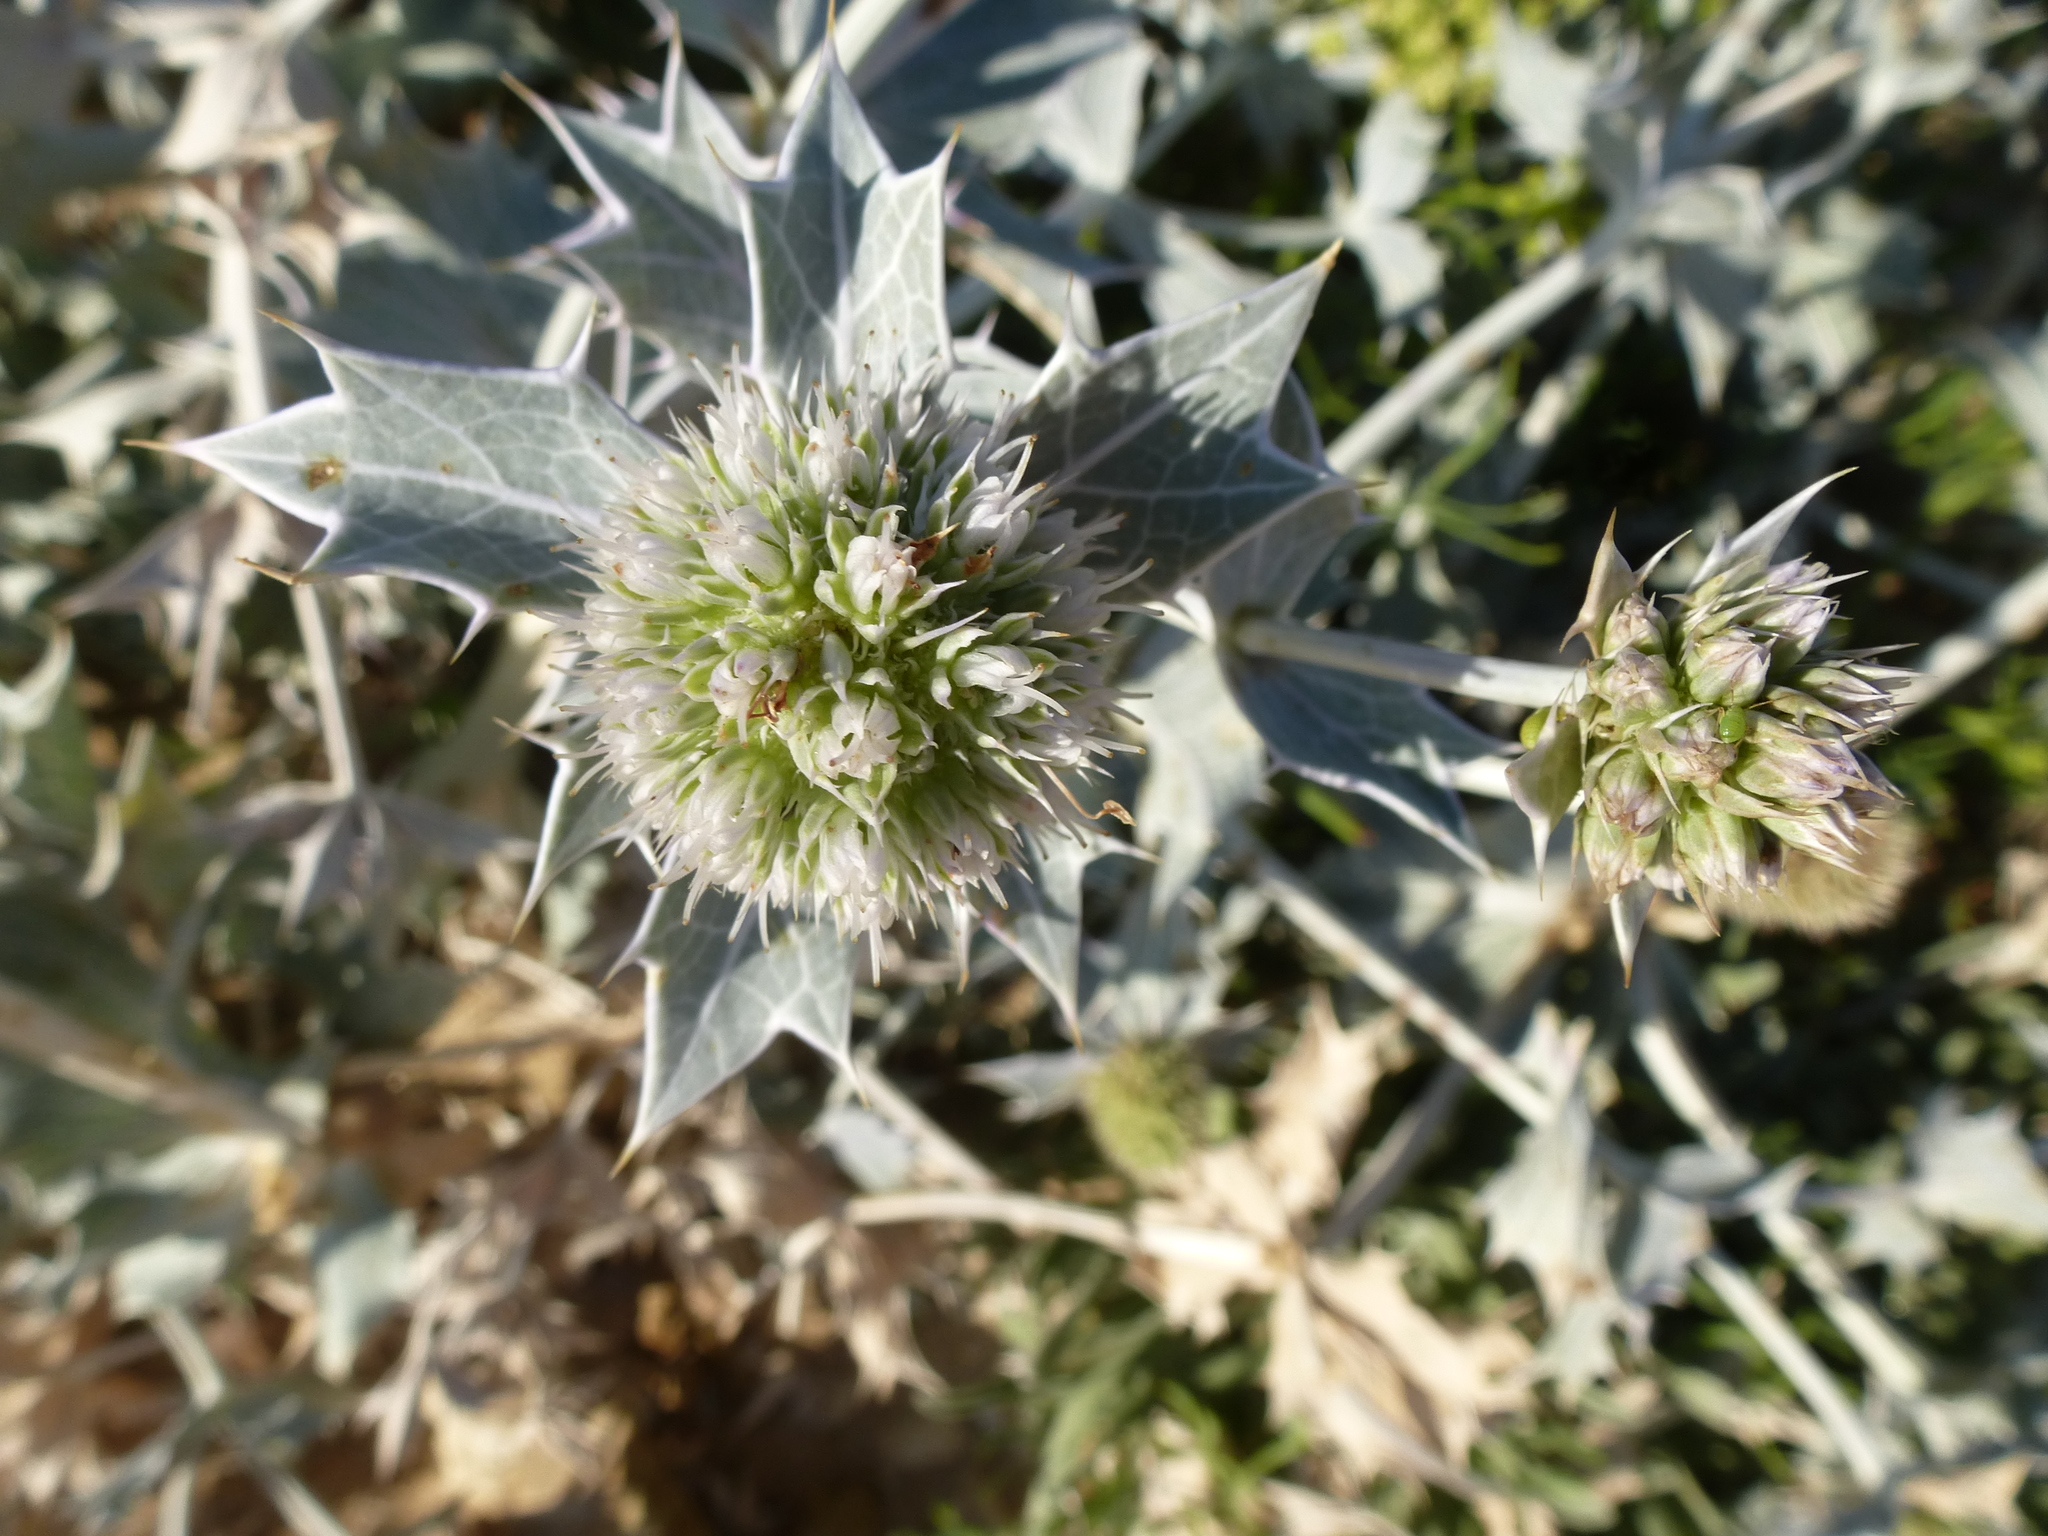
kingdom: Plantae
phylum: Tracheophyta
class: Magnoliopsida
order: Apiales
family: Apiaceae
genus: Eryngium
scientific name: Eryngium maritimum
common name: Sea-holly
